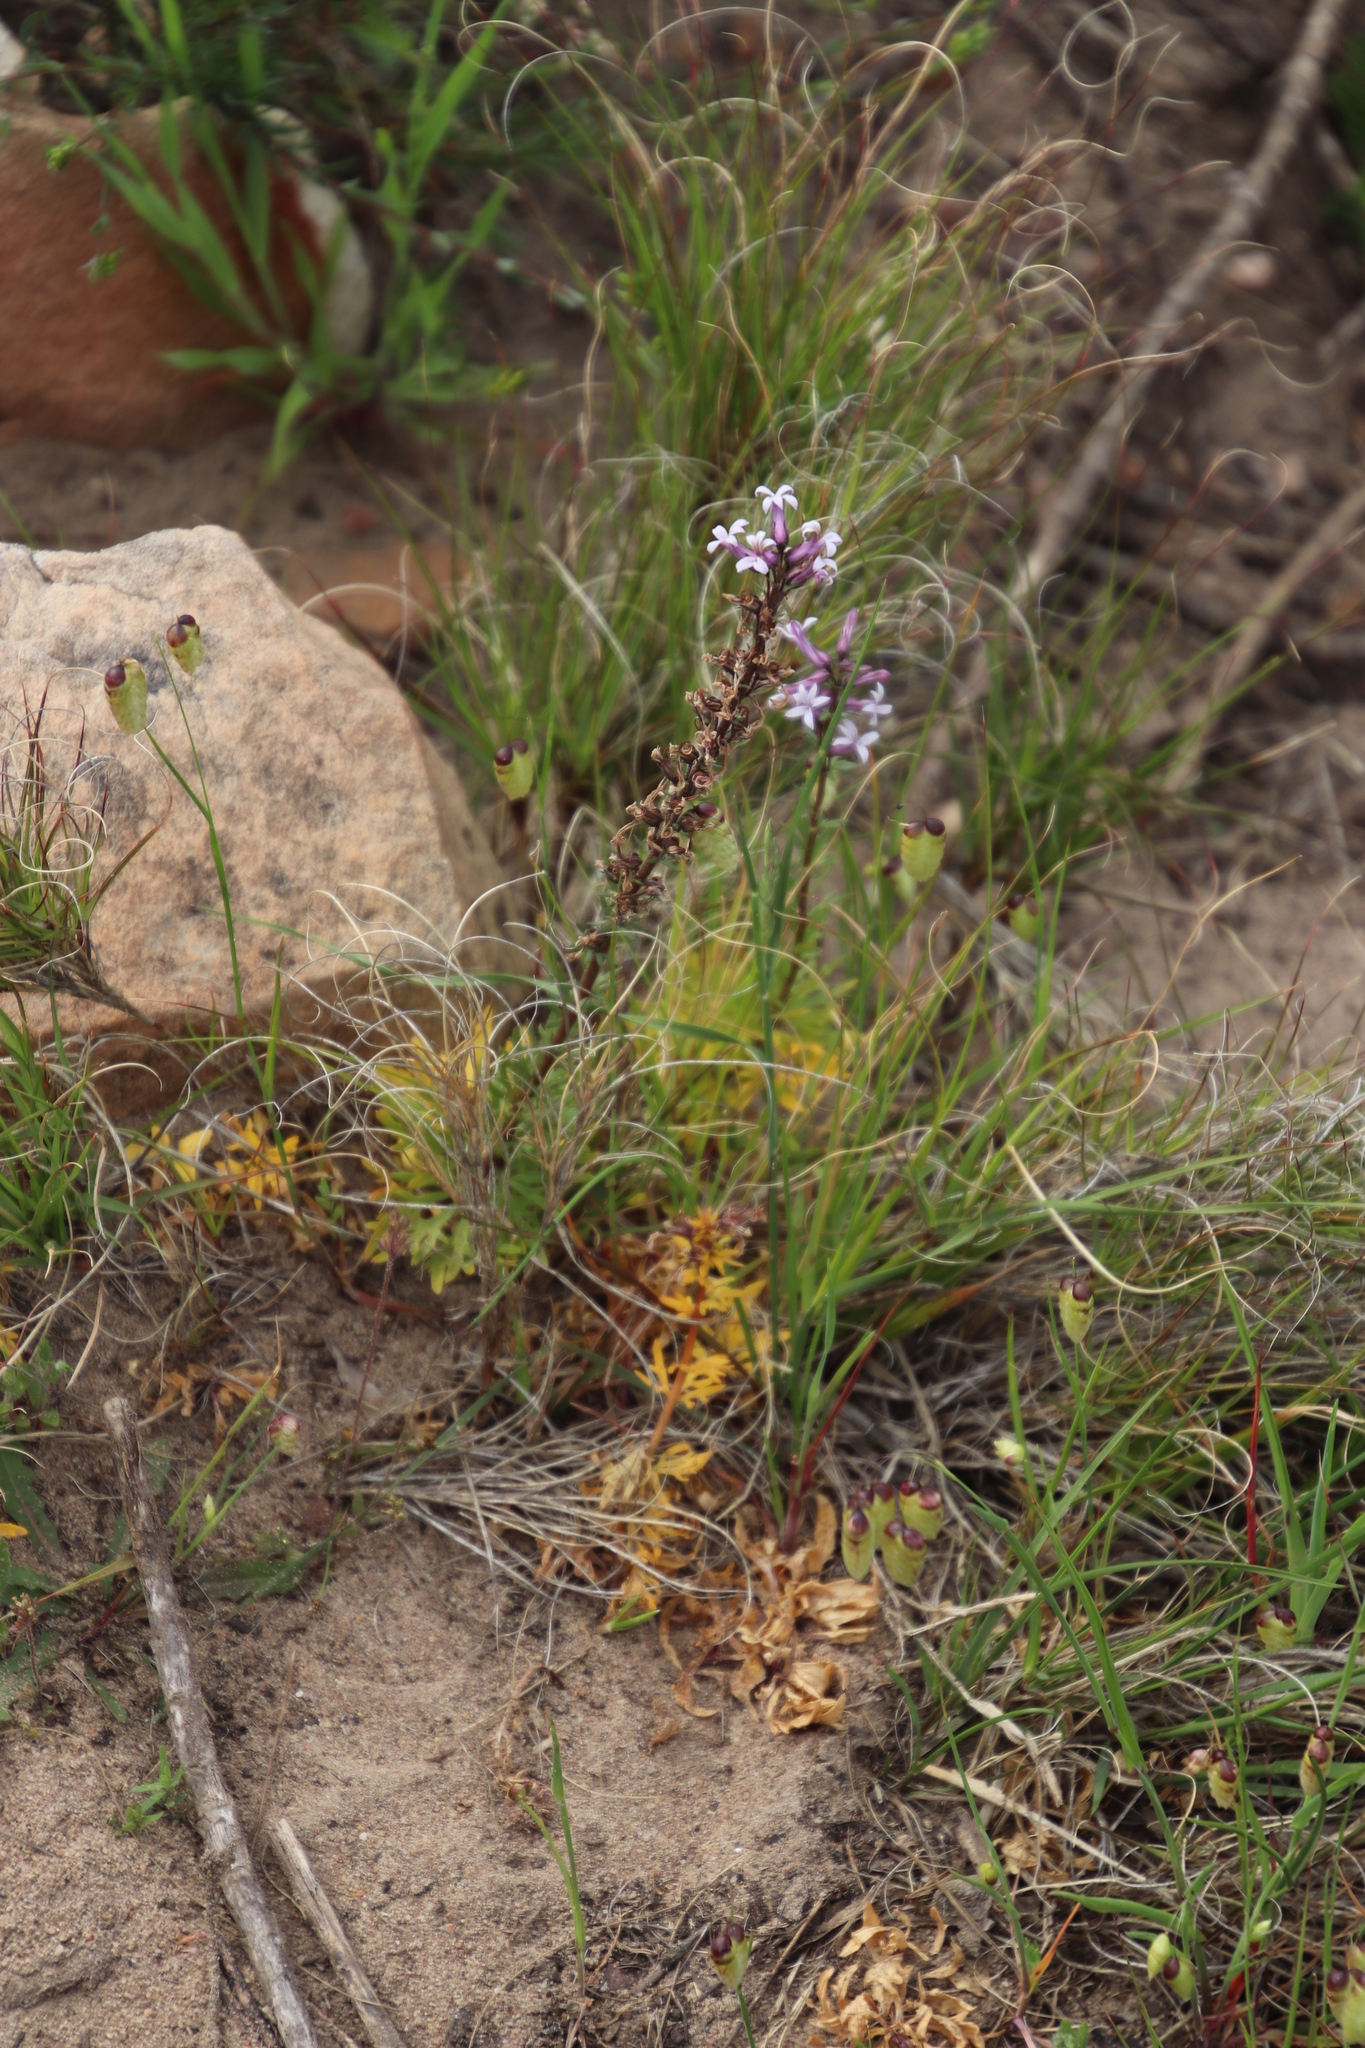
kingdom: Plantae
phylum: Tracheophyta
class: Magnoliopsida
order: Asterales
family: Campanulaceae
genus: Cyphia
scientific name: Cyphia bulbosa
